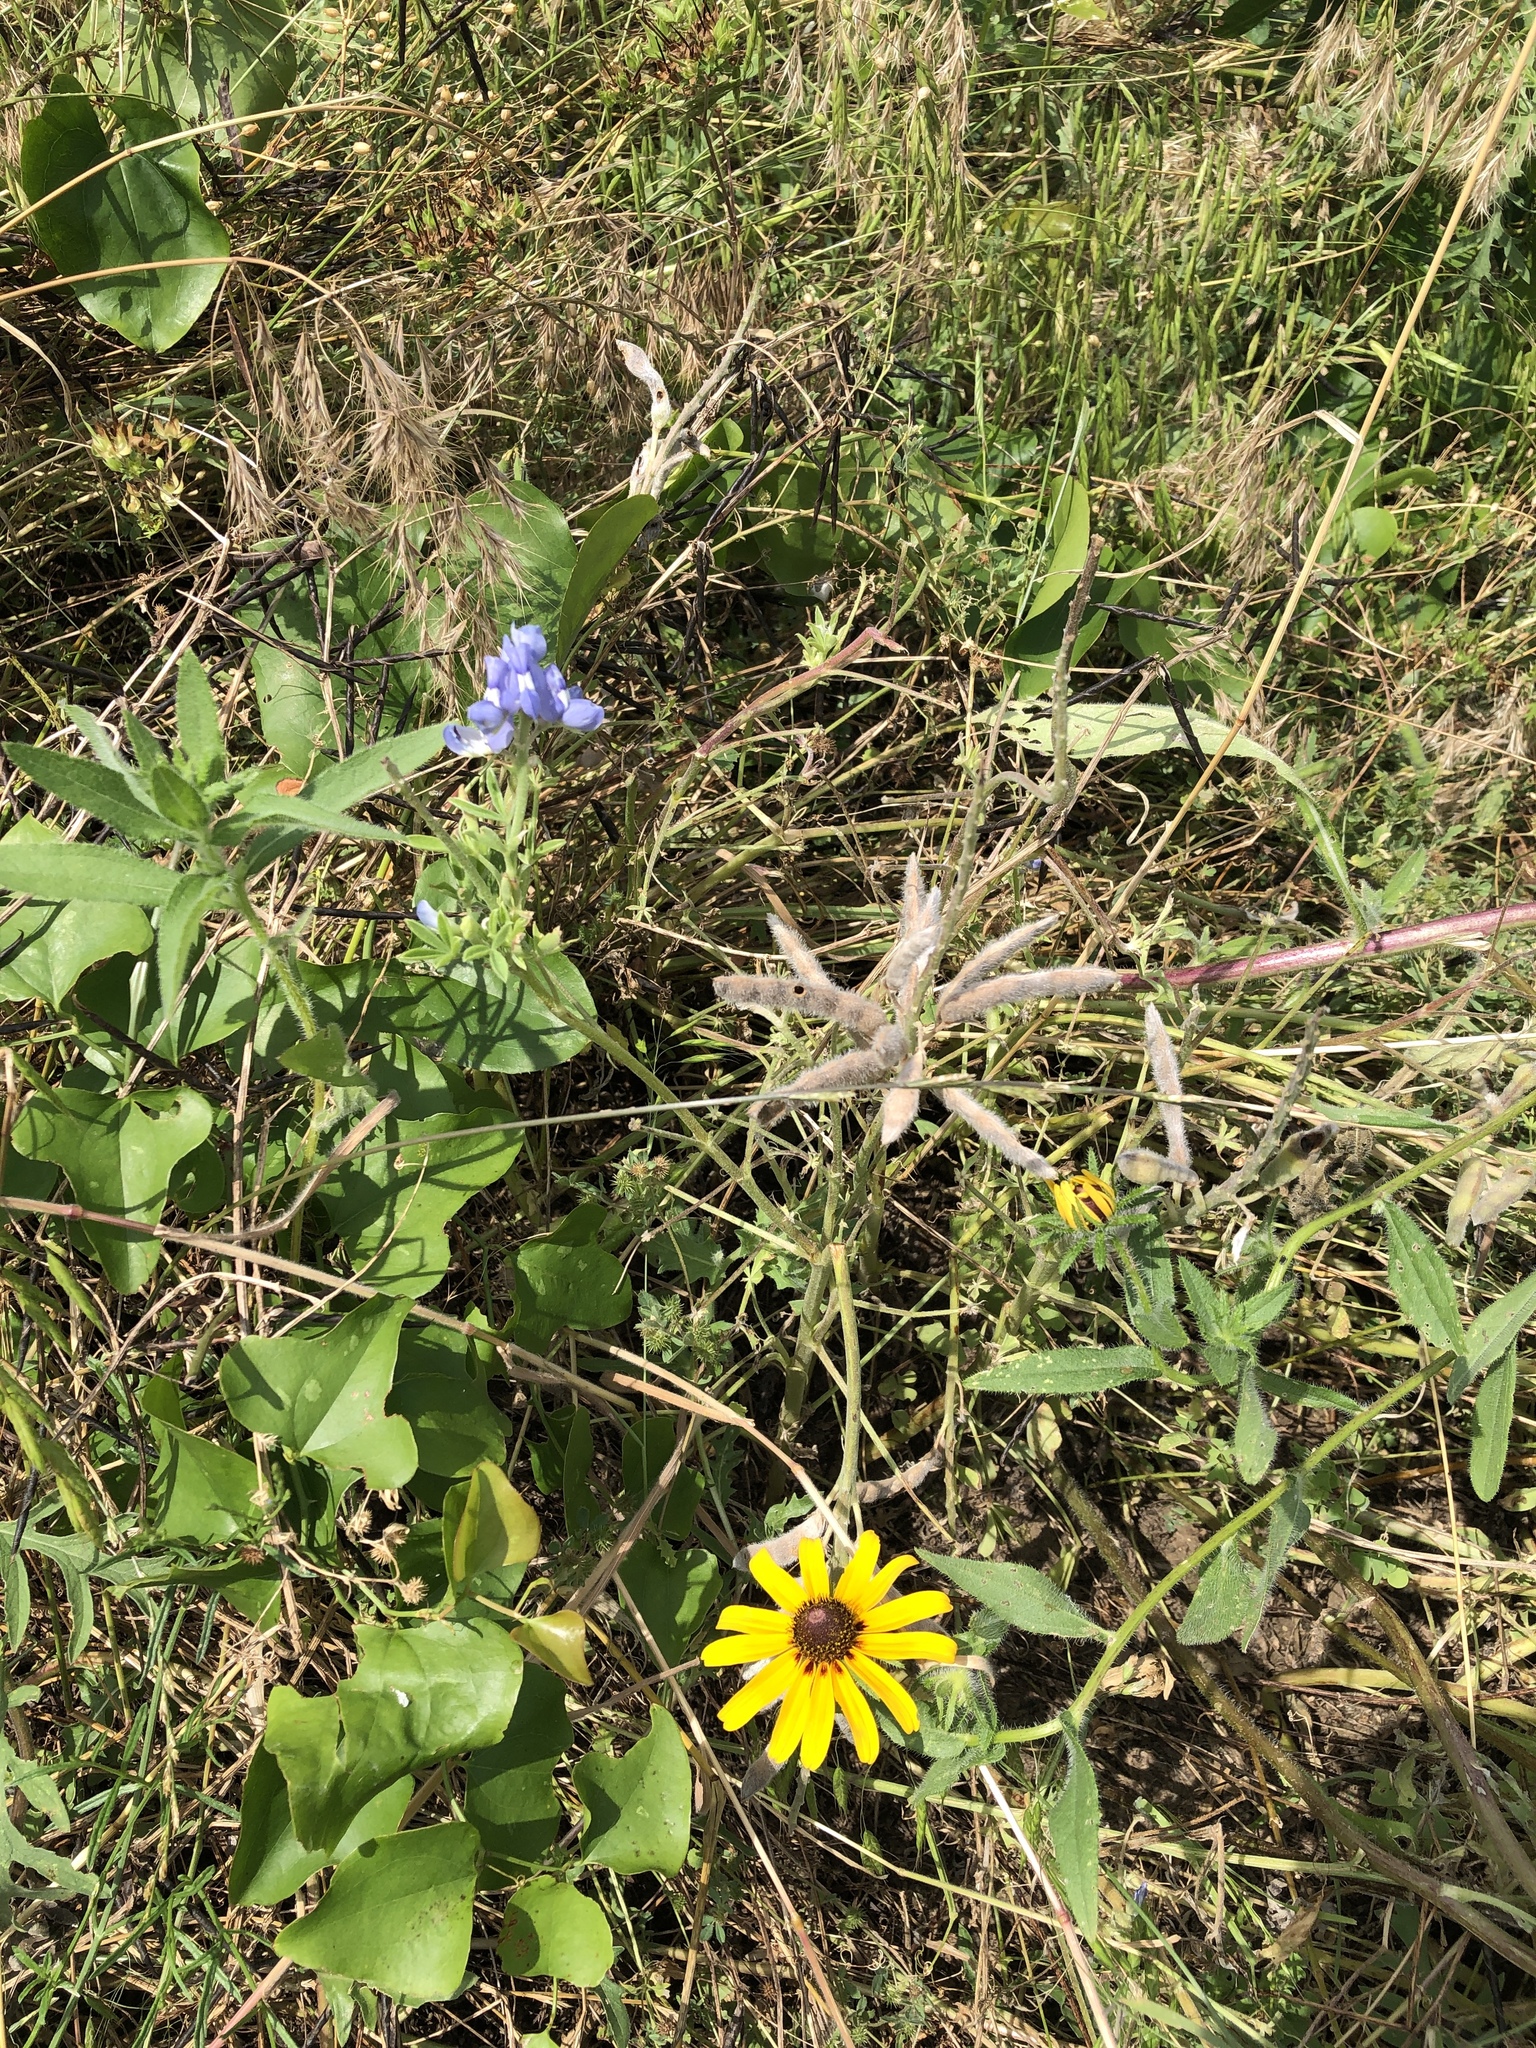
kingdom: Plantae
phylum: Tracheophyta
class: Magnoliopsida
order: Fabales
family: Fabaceae
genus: Lupinus
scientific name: Lupinus texensis
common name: Texas bluebonnet
